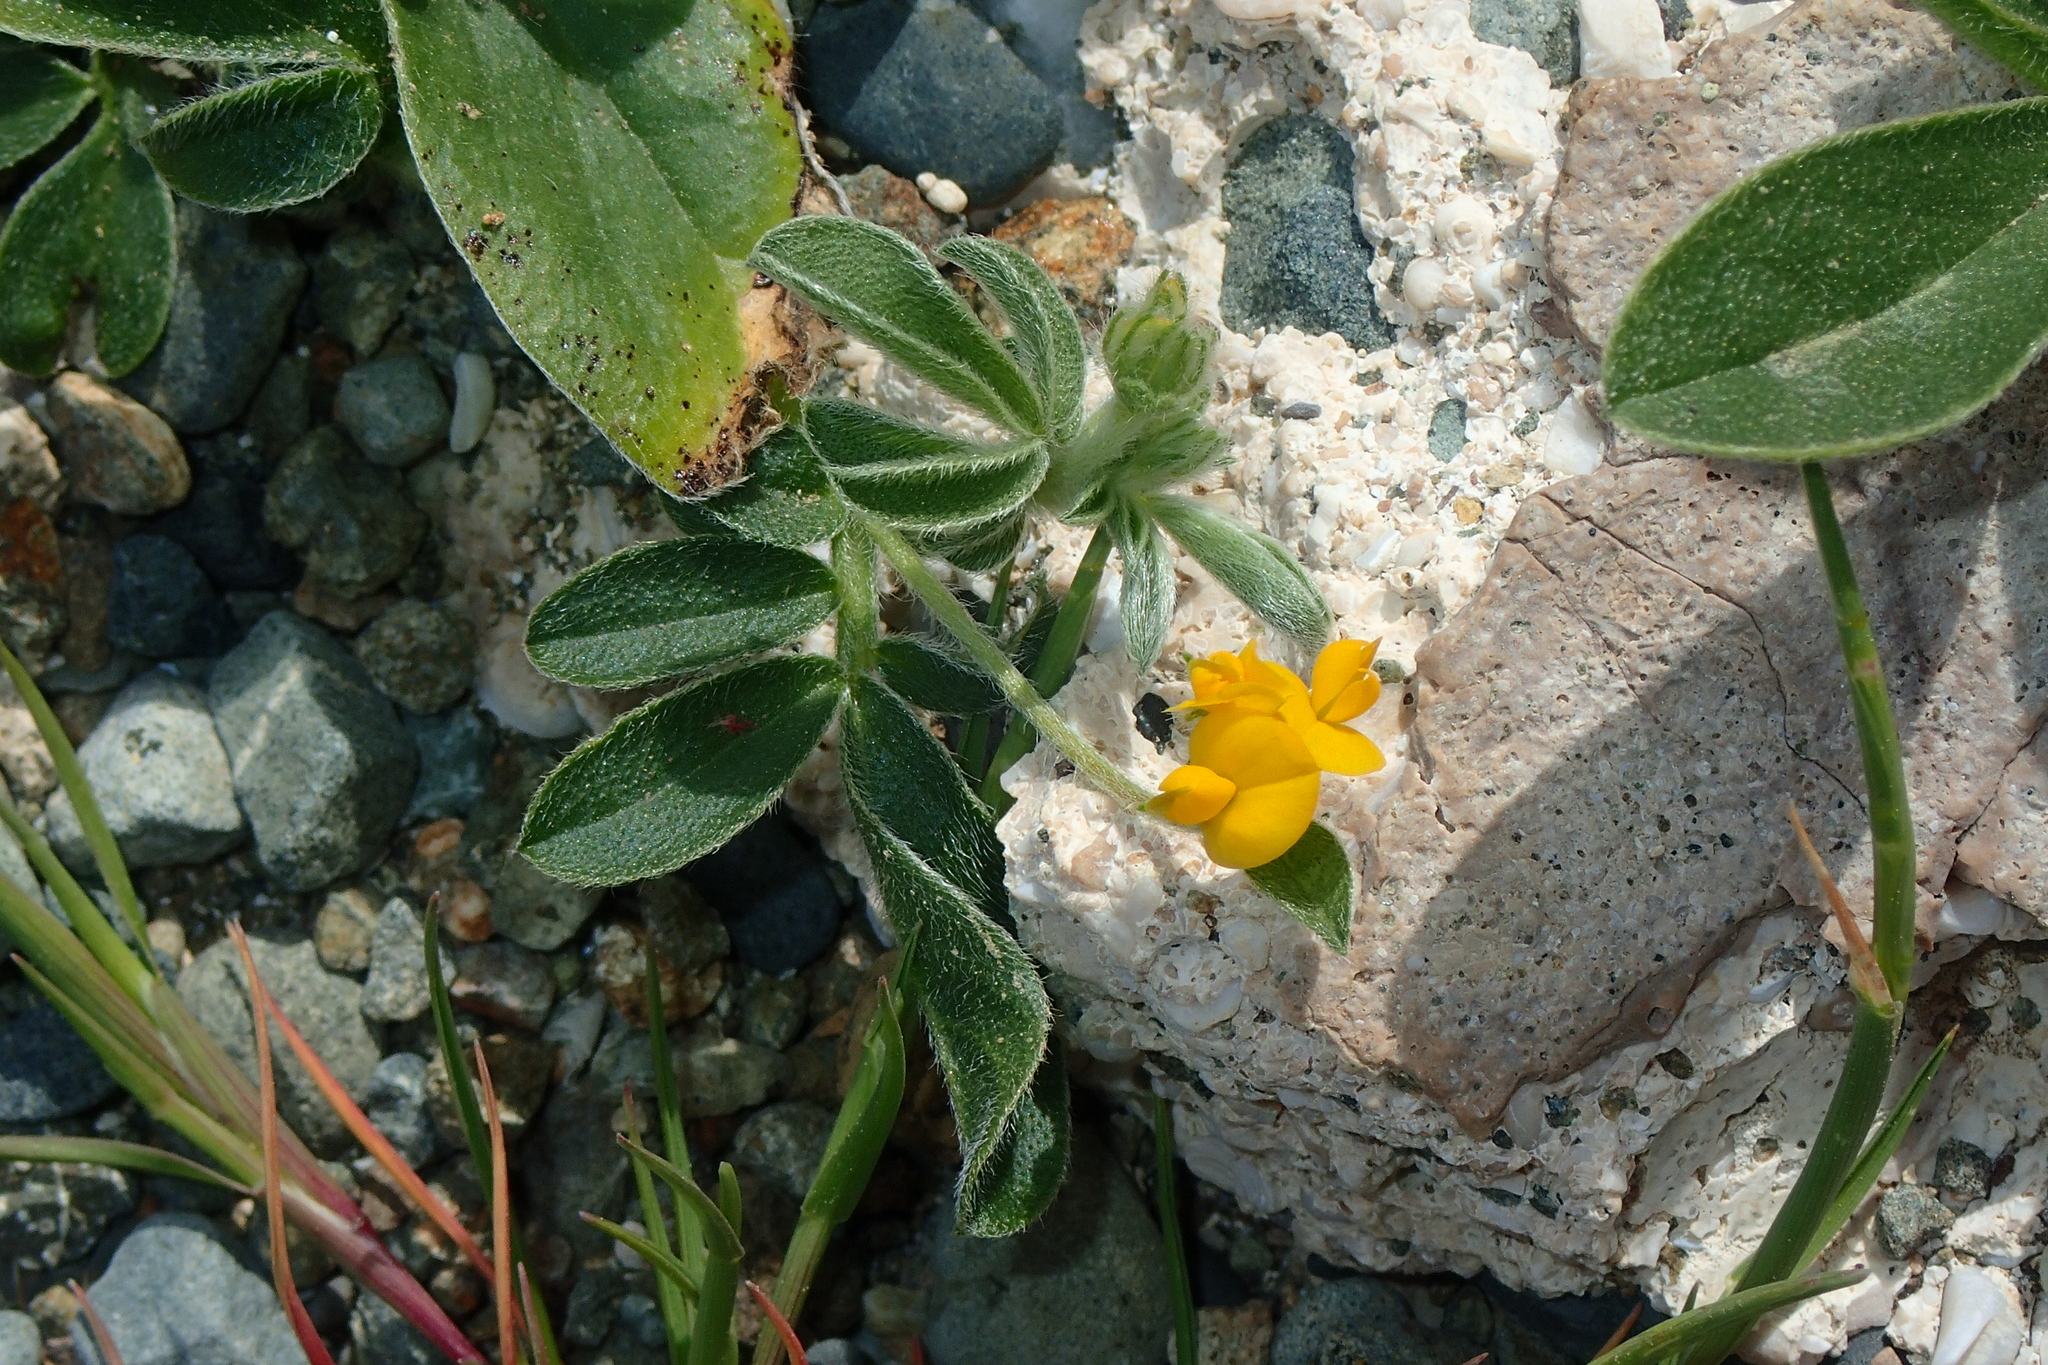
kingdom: Plantae
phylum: Tracheophyta
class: Magnoliopsida
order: Fabales
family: Fabaceae
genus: Anthyllis
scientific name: Anthyllis circinnata
